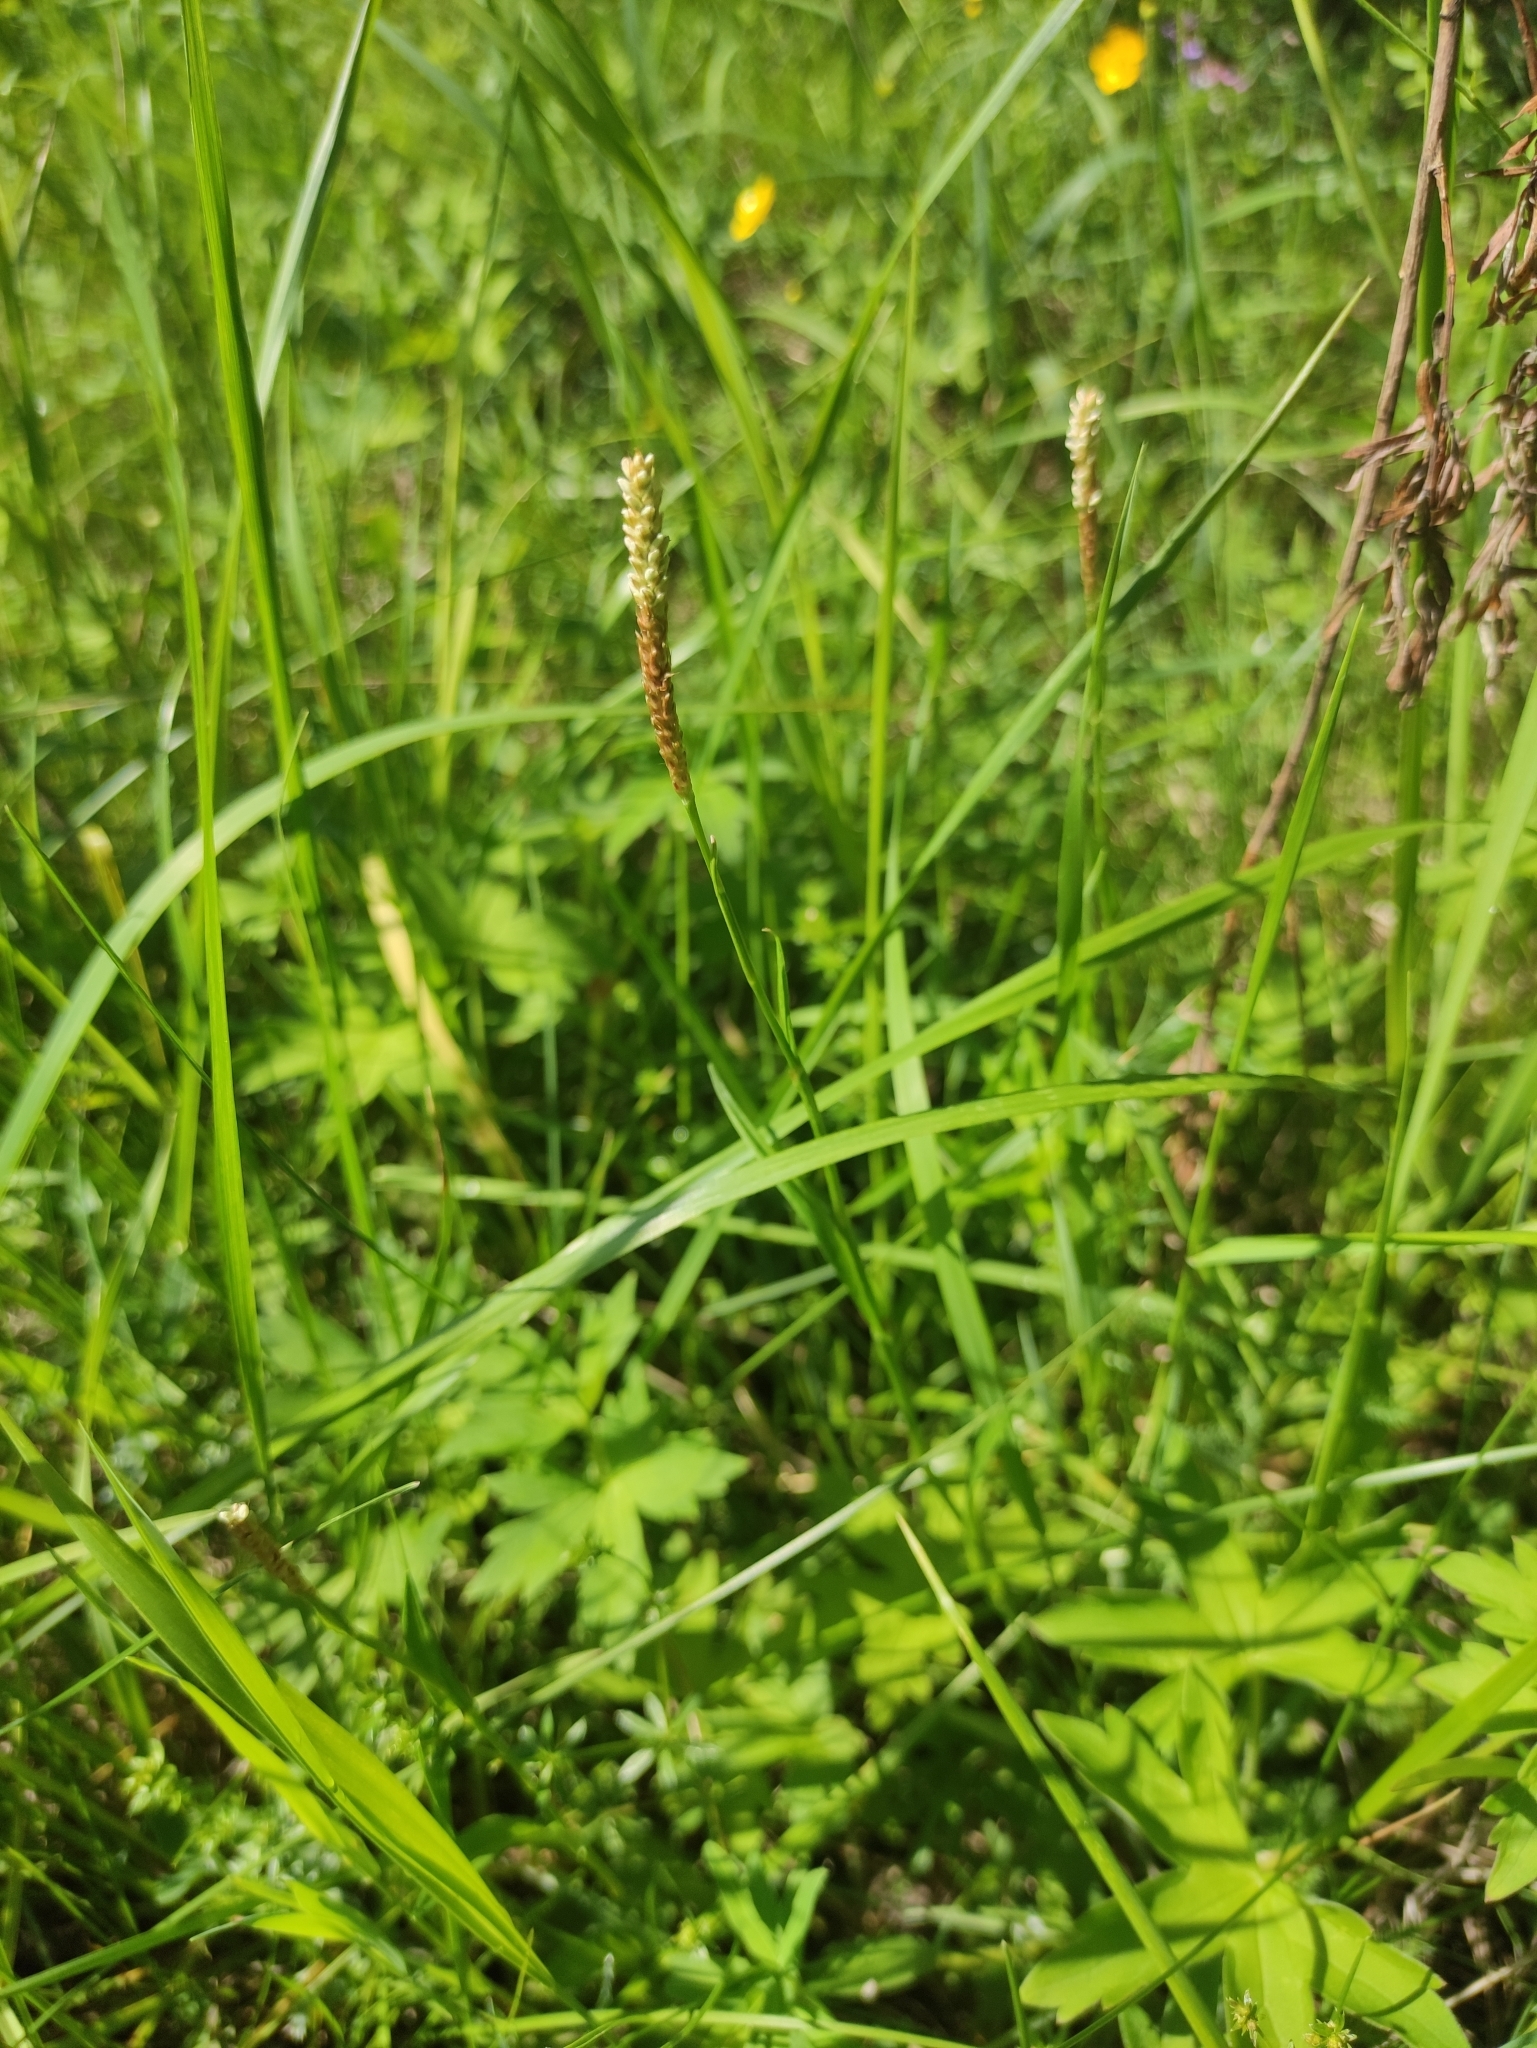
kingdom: Plantae
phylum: Tracheophyta
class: Magnoliopsida
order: Caryophyllales
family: Polygonaceae
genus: Bistorta
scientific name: Bistorta vivipara
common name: Alpine bistort
